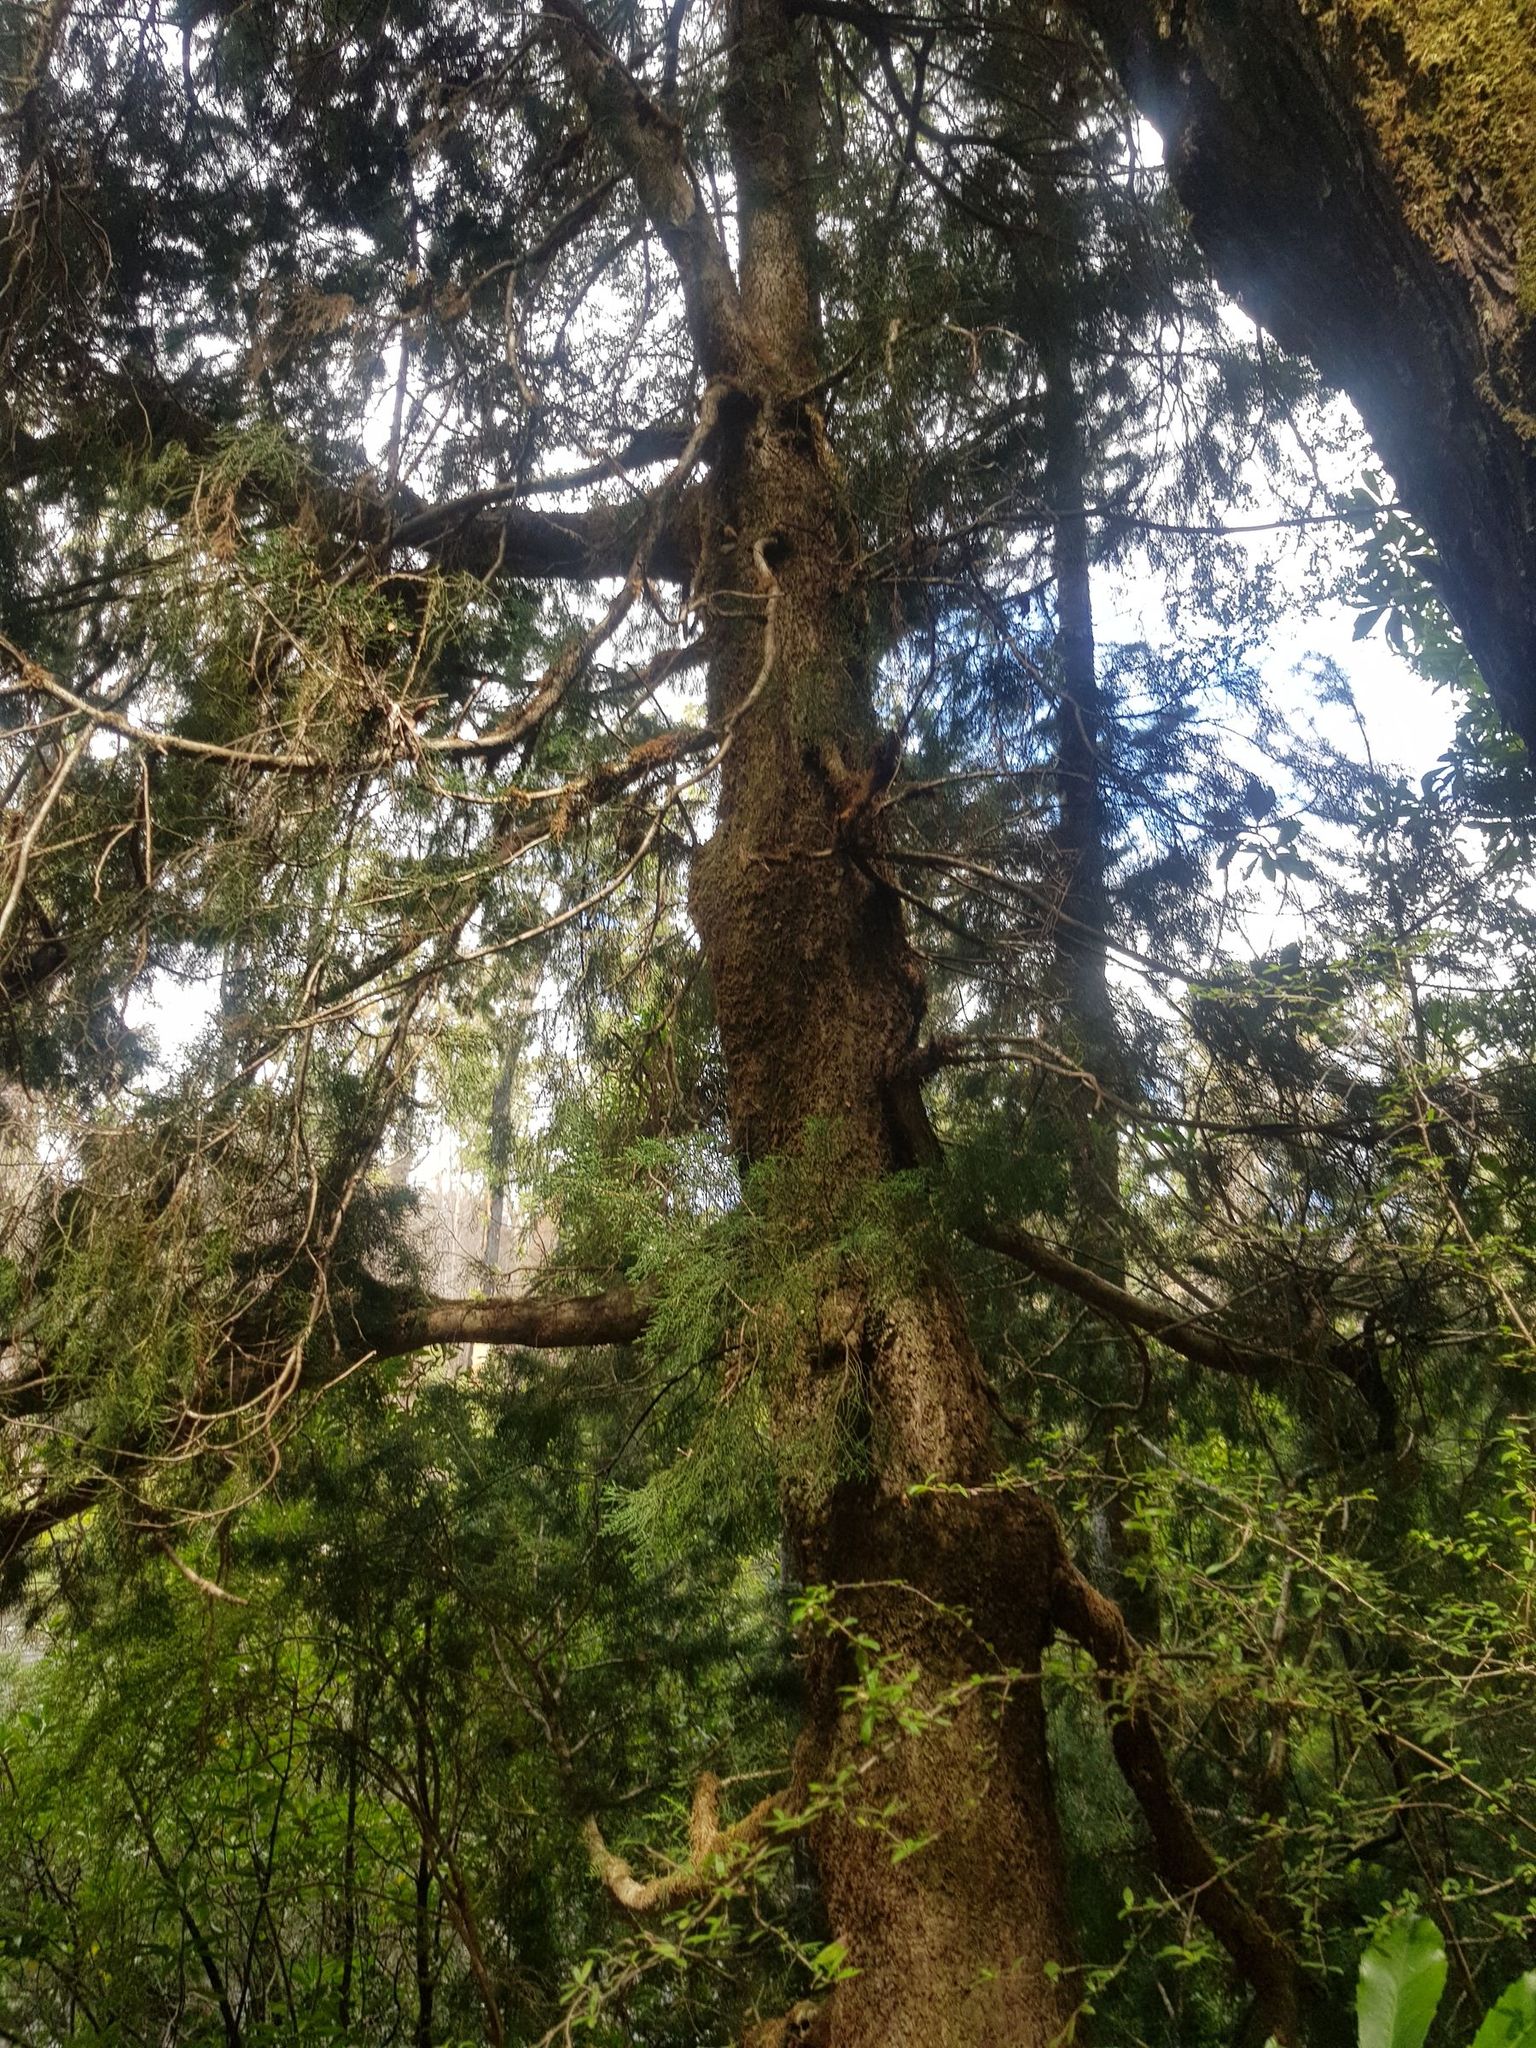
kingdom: Plantae
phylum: Tracheophyta
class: Pinopsida
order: Pinales
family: Podocarpaceae
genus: Lagarostrobos
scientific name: Lagarostrobos franklinii
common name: Huon pine
